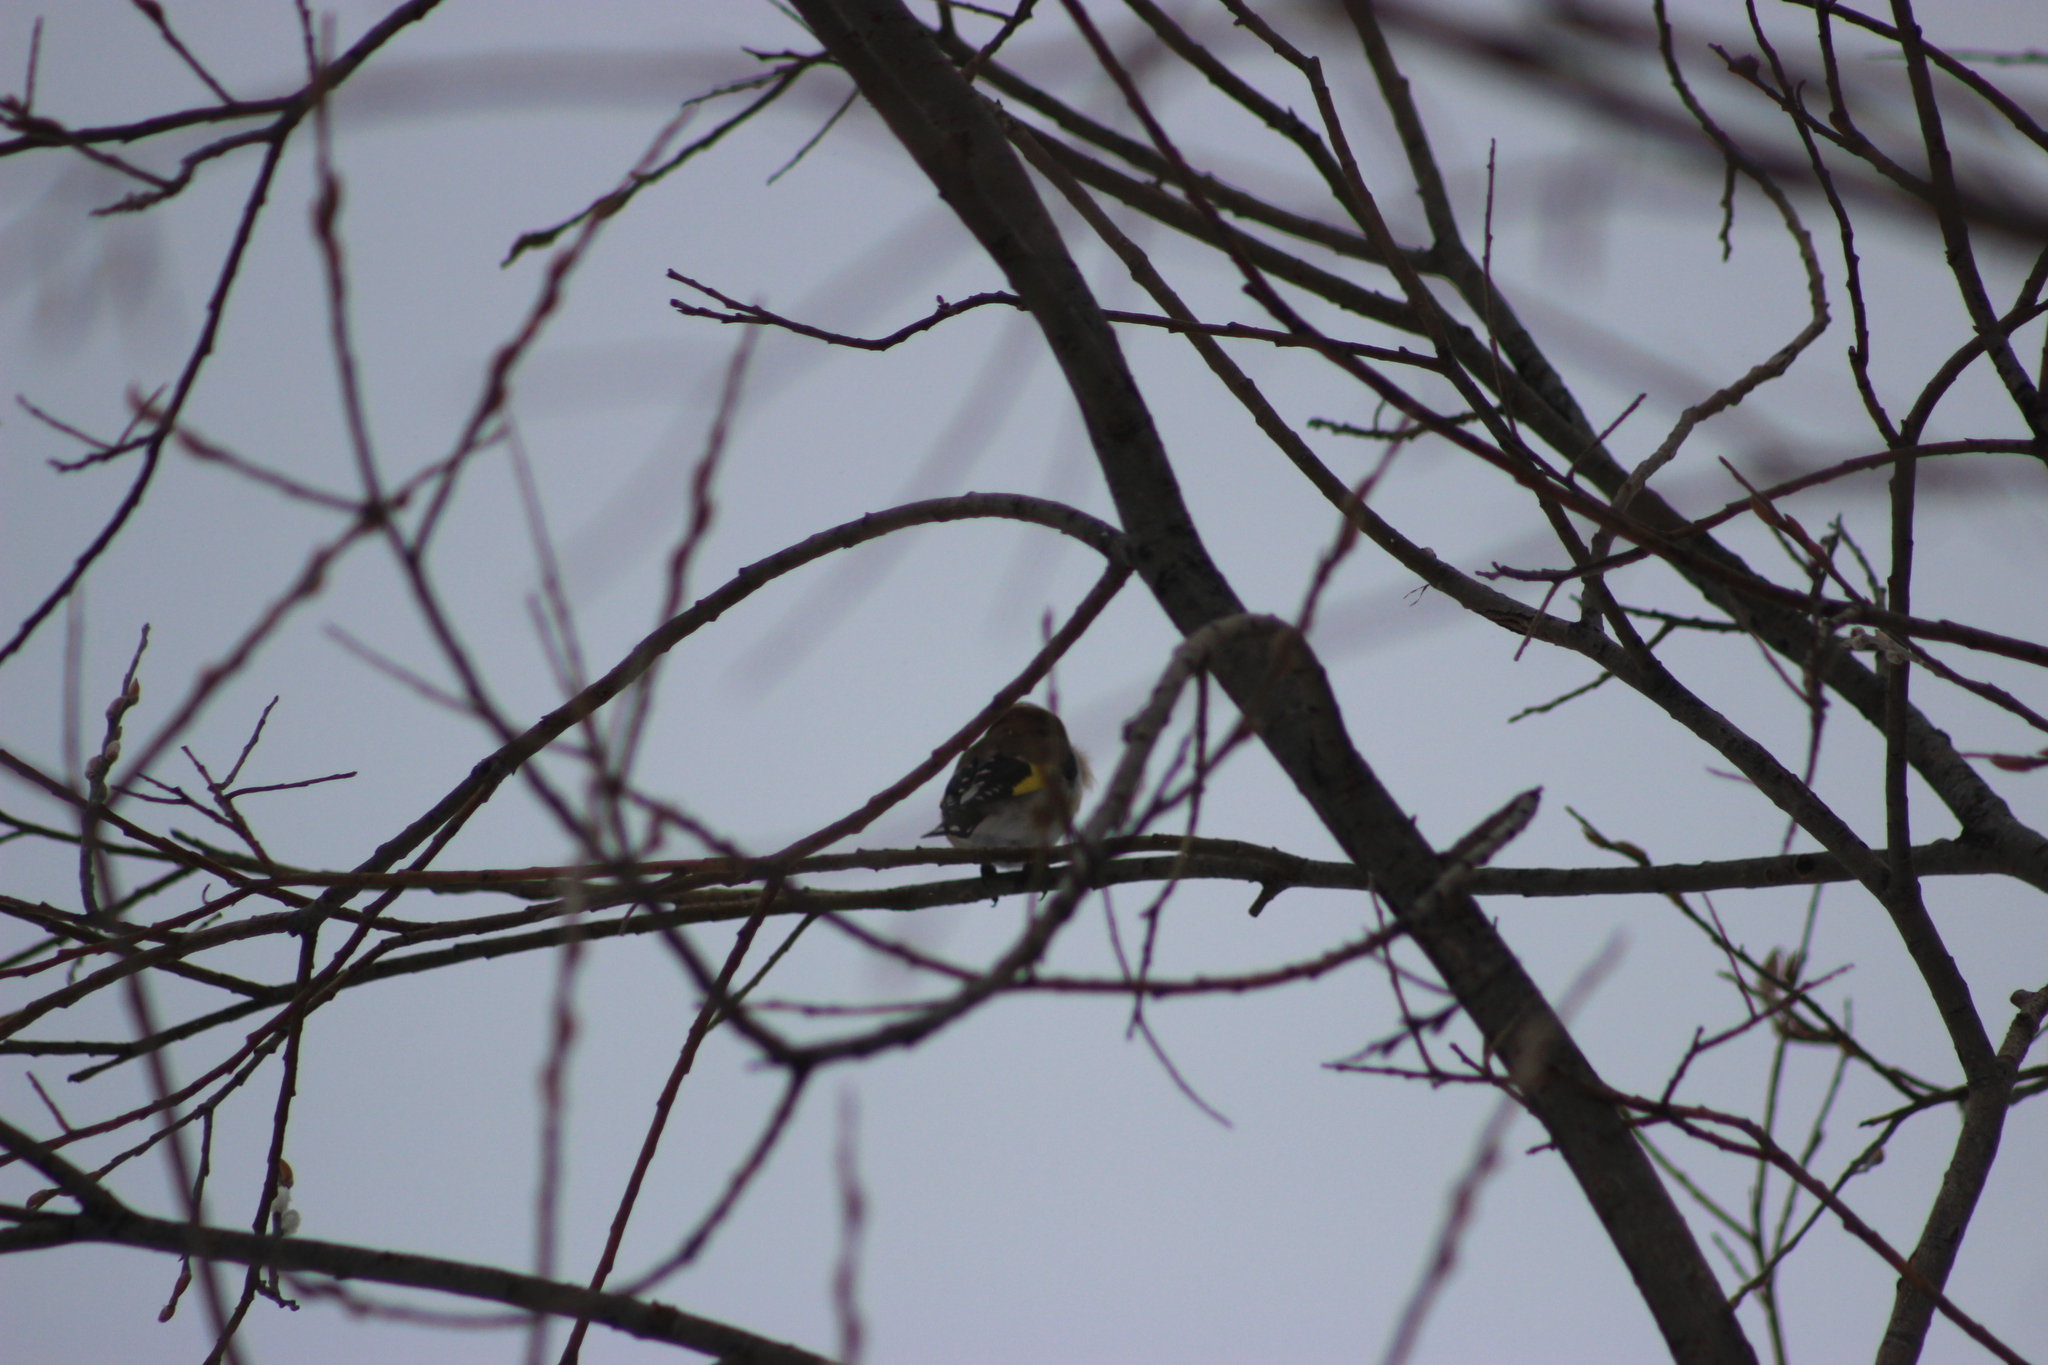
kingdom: Animalia
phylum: Chordata
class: Aves
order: Passeriformes
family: Fringillidae
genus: Carduelis
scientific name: Carduelis carduelis
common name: European goldfinch
